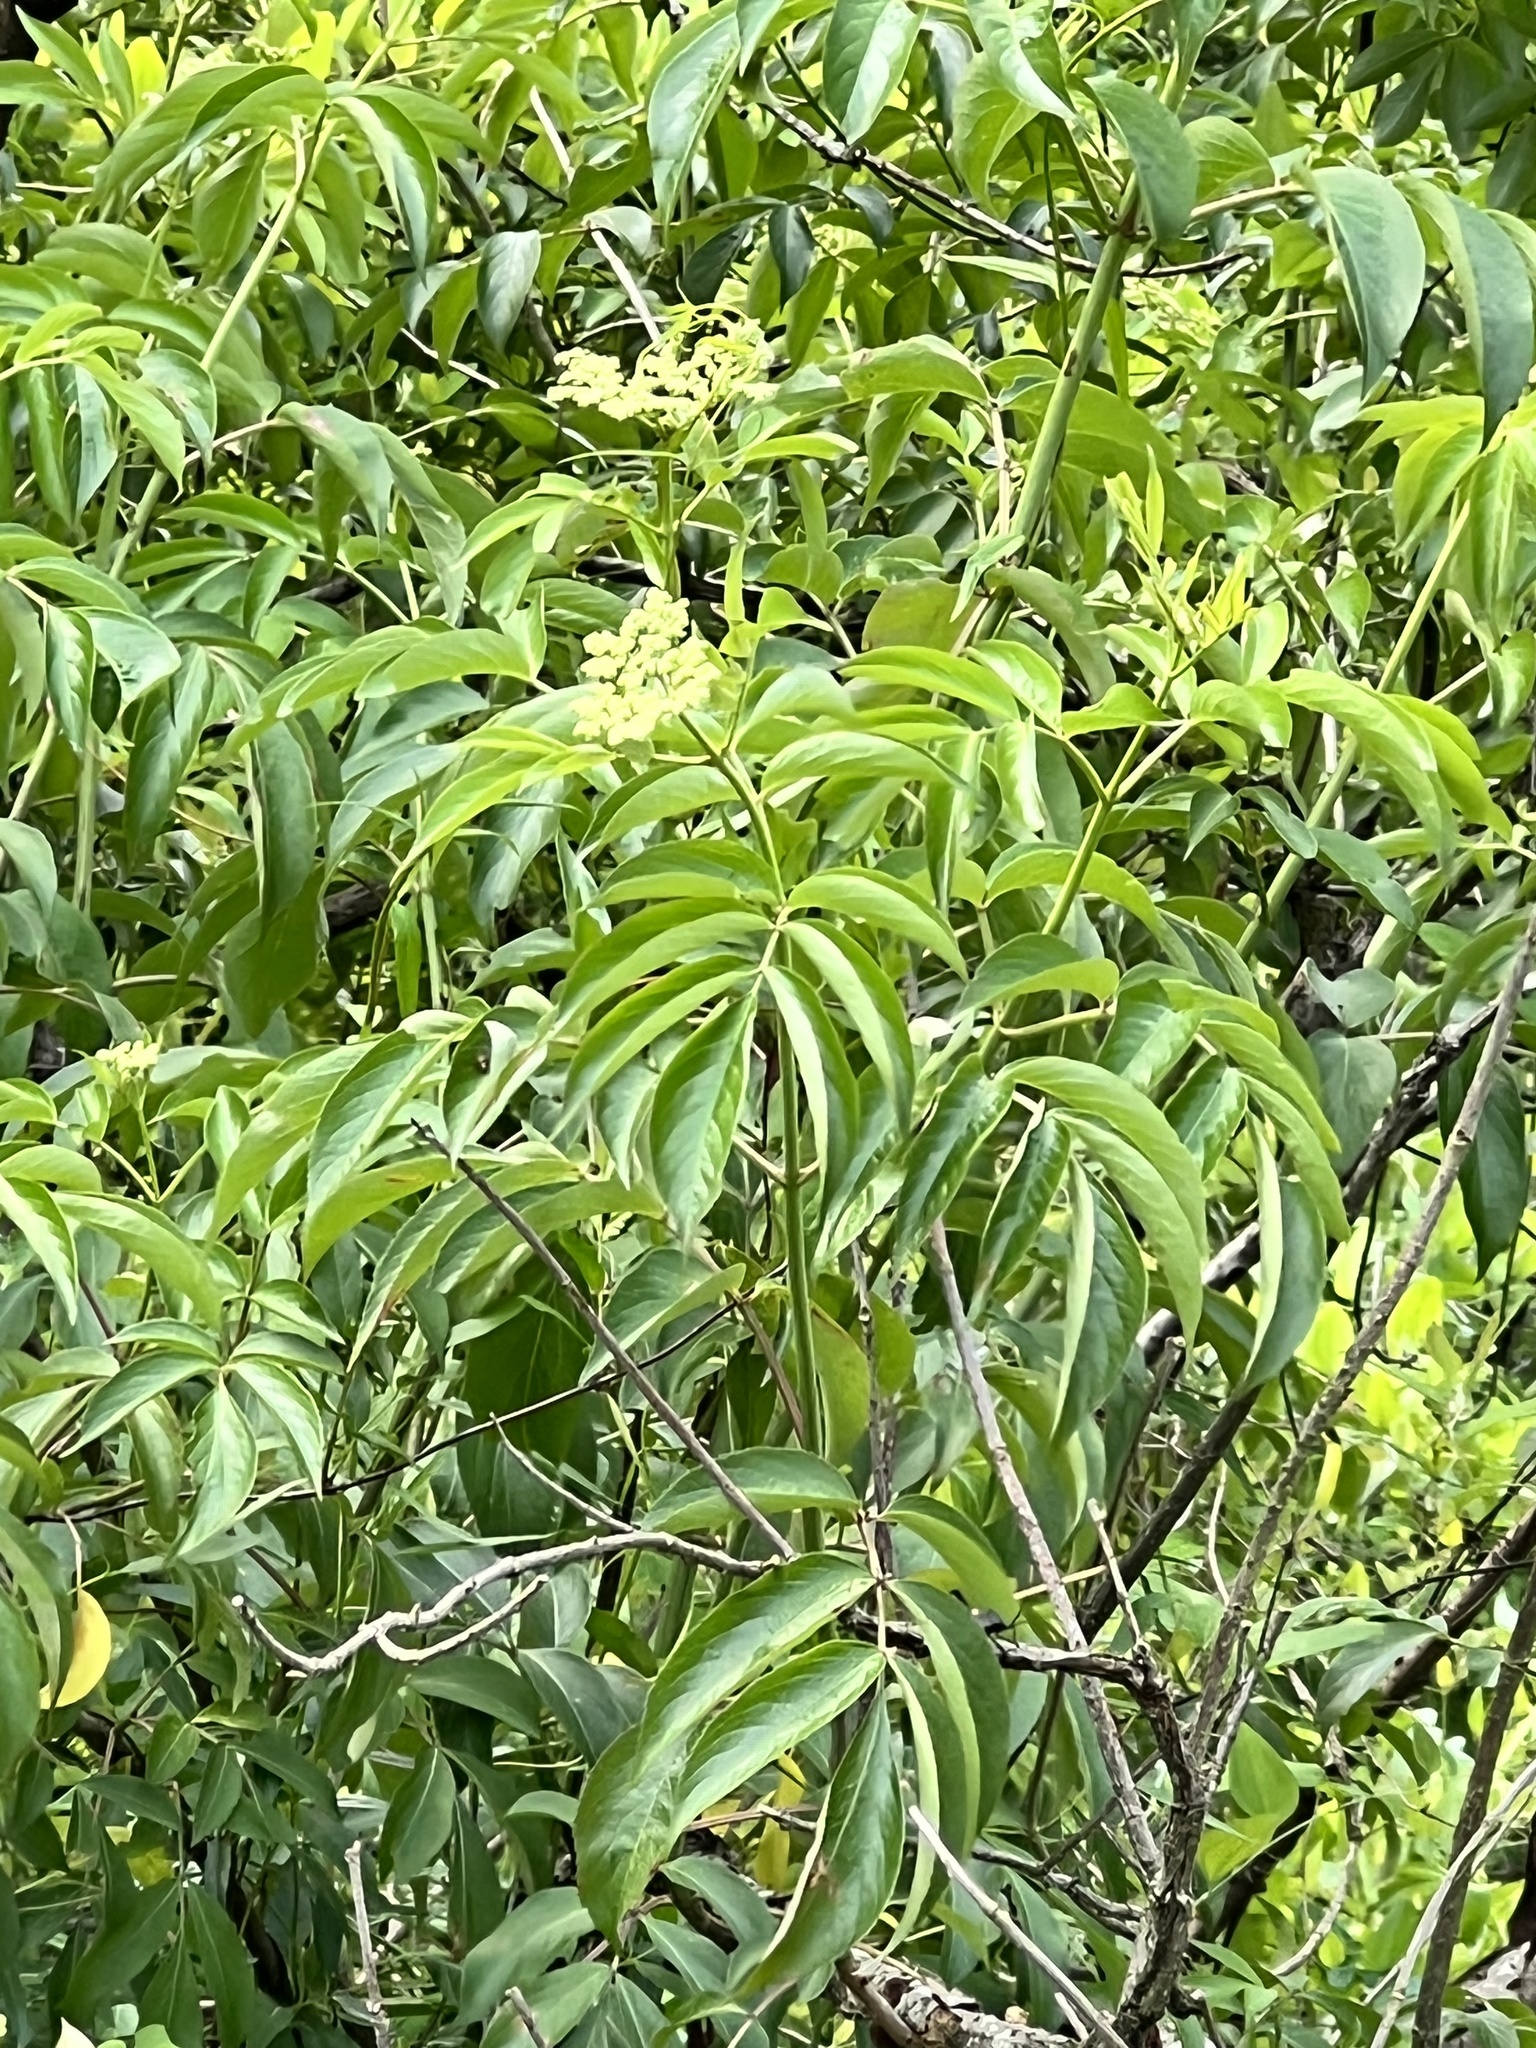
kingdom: Plantae
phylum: Tracheophyta
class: Magnoliopsida
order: Dipsacales
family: Viburnaceae
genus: Sambucus
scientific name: Sambucus canadensis
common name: American elder
